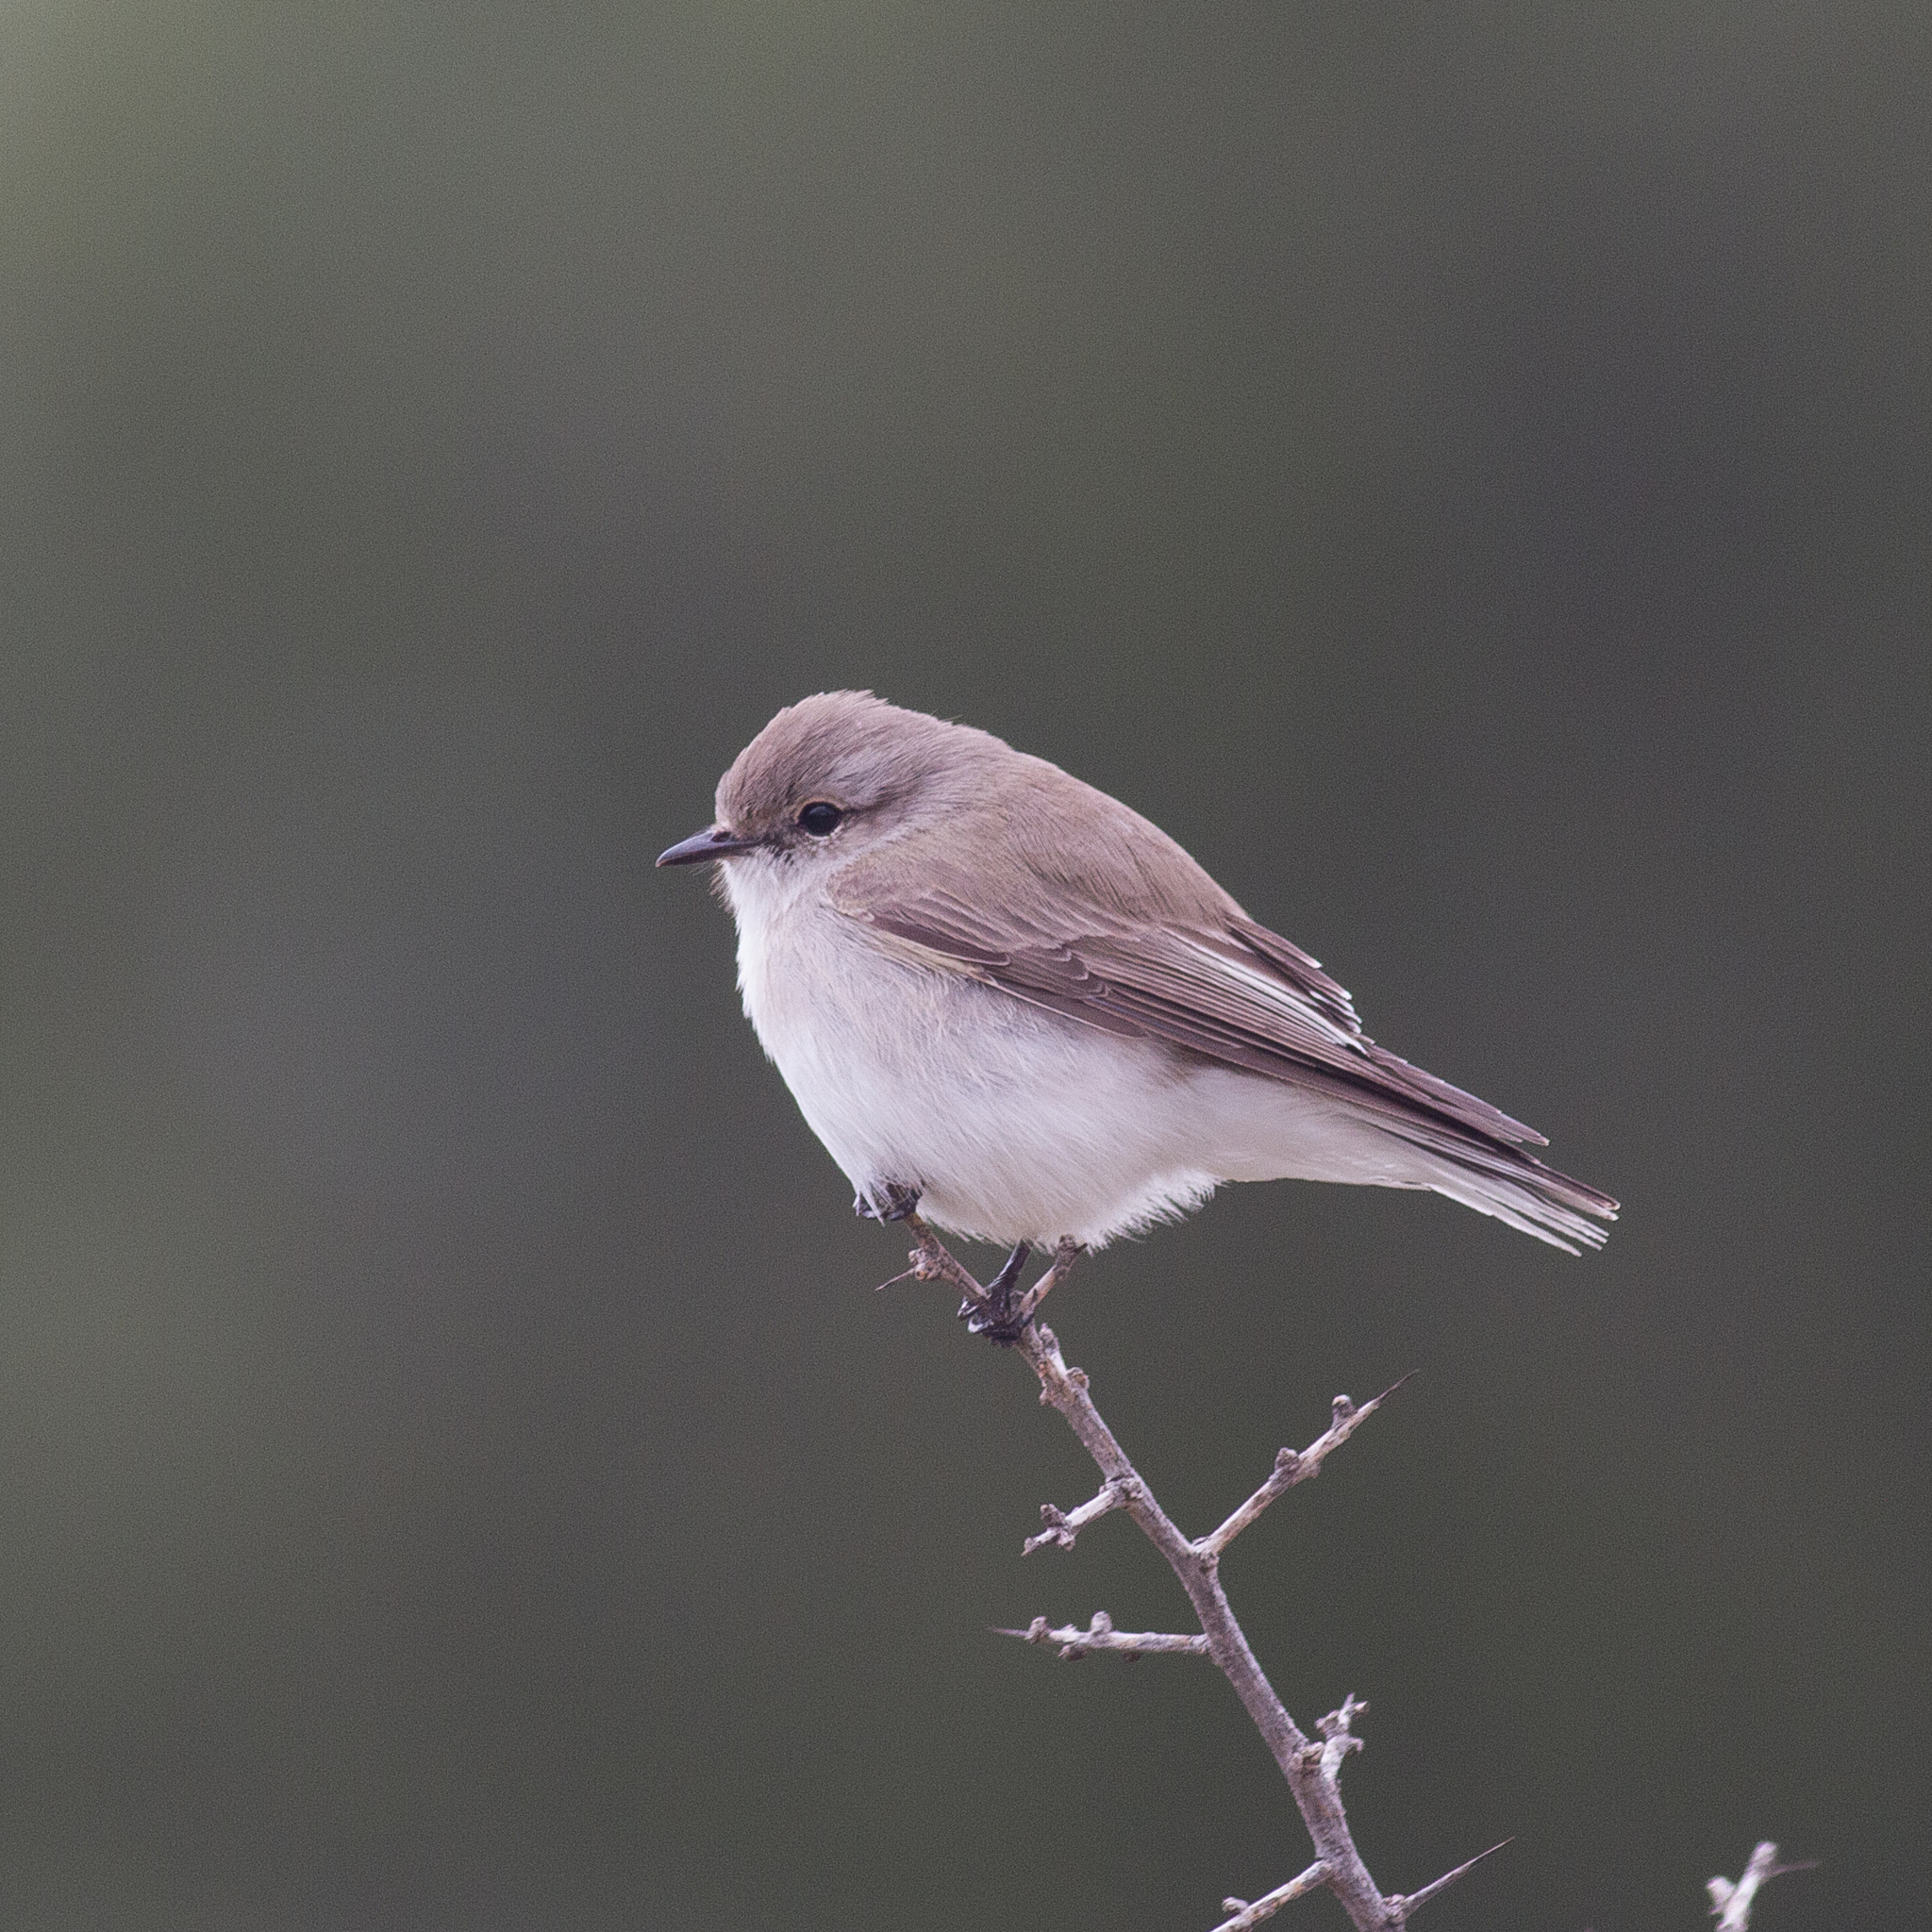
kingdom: Animalia
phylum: Chordata
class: Aves
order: Passeriformes
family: Petroicidae
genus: Microeca
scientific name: Microeca fascinans
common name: Jacky winter
